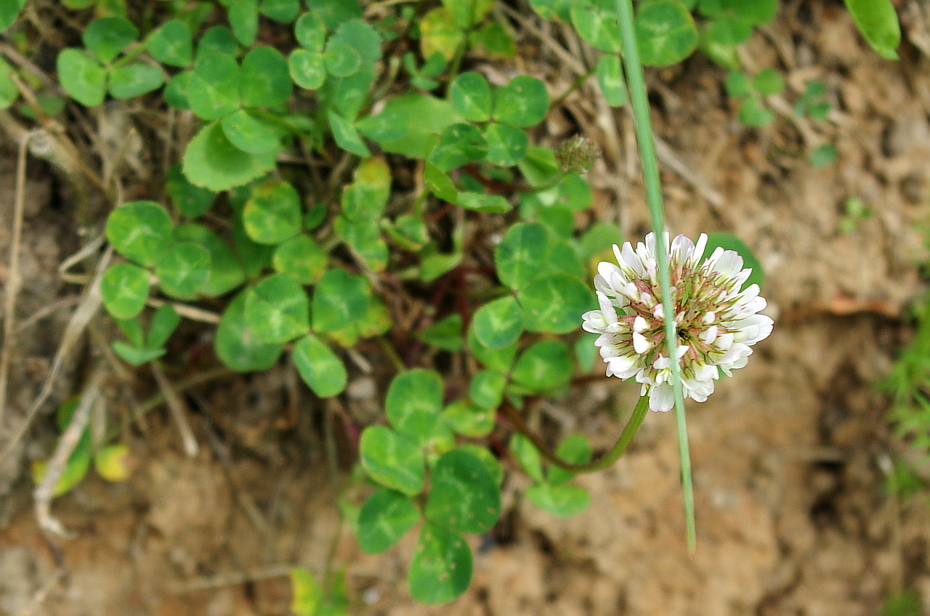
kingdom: Plantae
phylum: Tracheophyta
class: Magnoliopsida
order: Fabales
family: Fabaceae
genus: Trifolium
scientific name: Trifolium repens
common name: White clover
